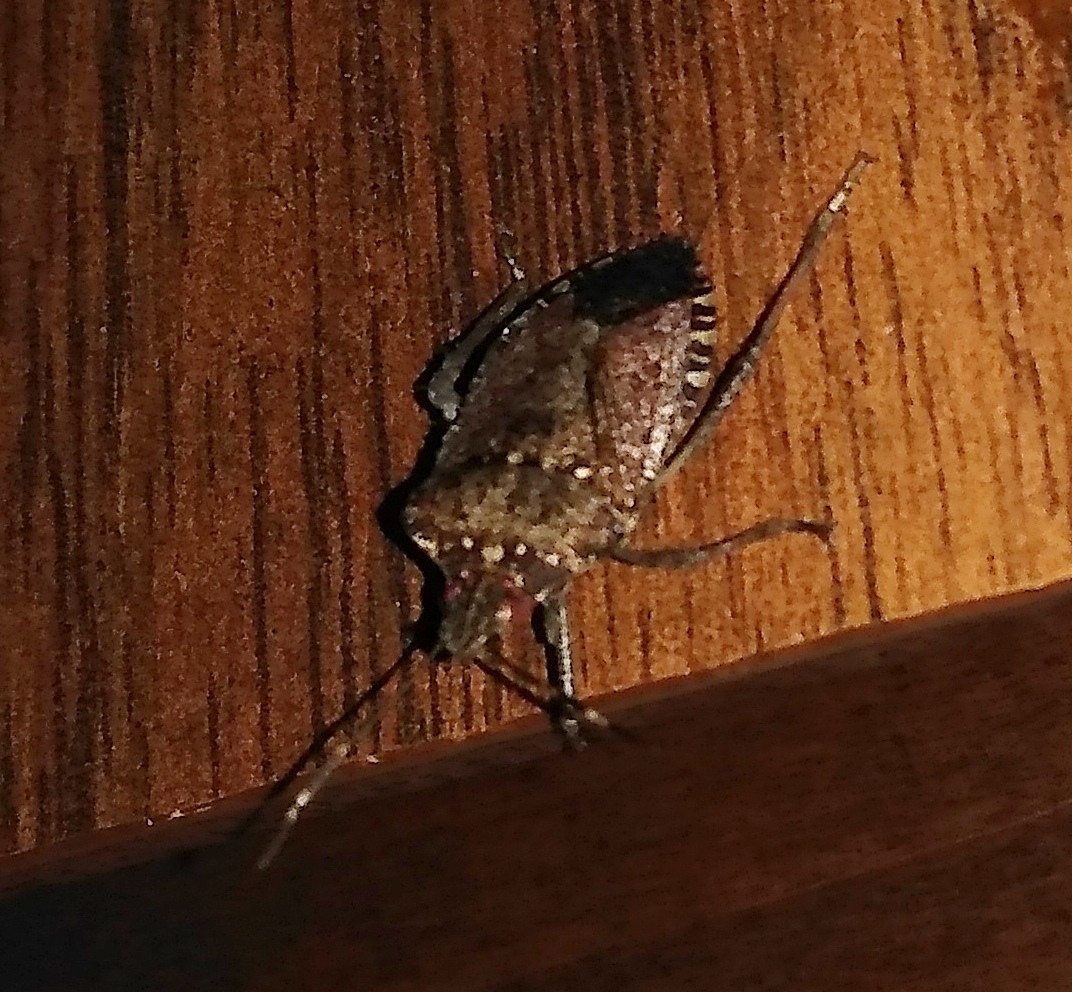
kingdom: Animalia
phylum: Arthropoda
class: Insecta
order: Hemiptera
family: Pentatomidae
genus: Halyomorpha
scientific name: Halyomorpha halys
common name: Brown marmorated stink bug
